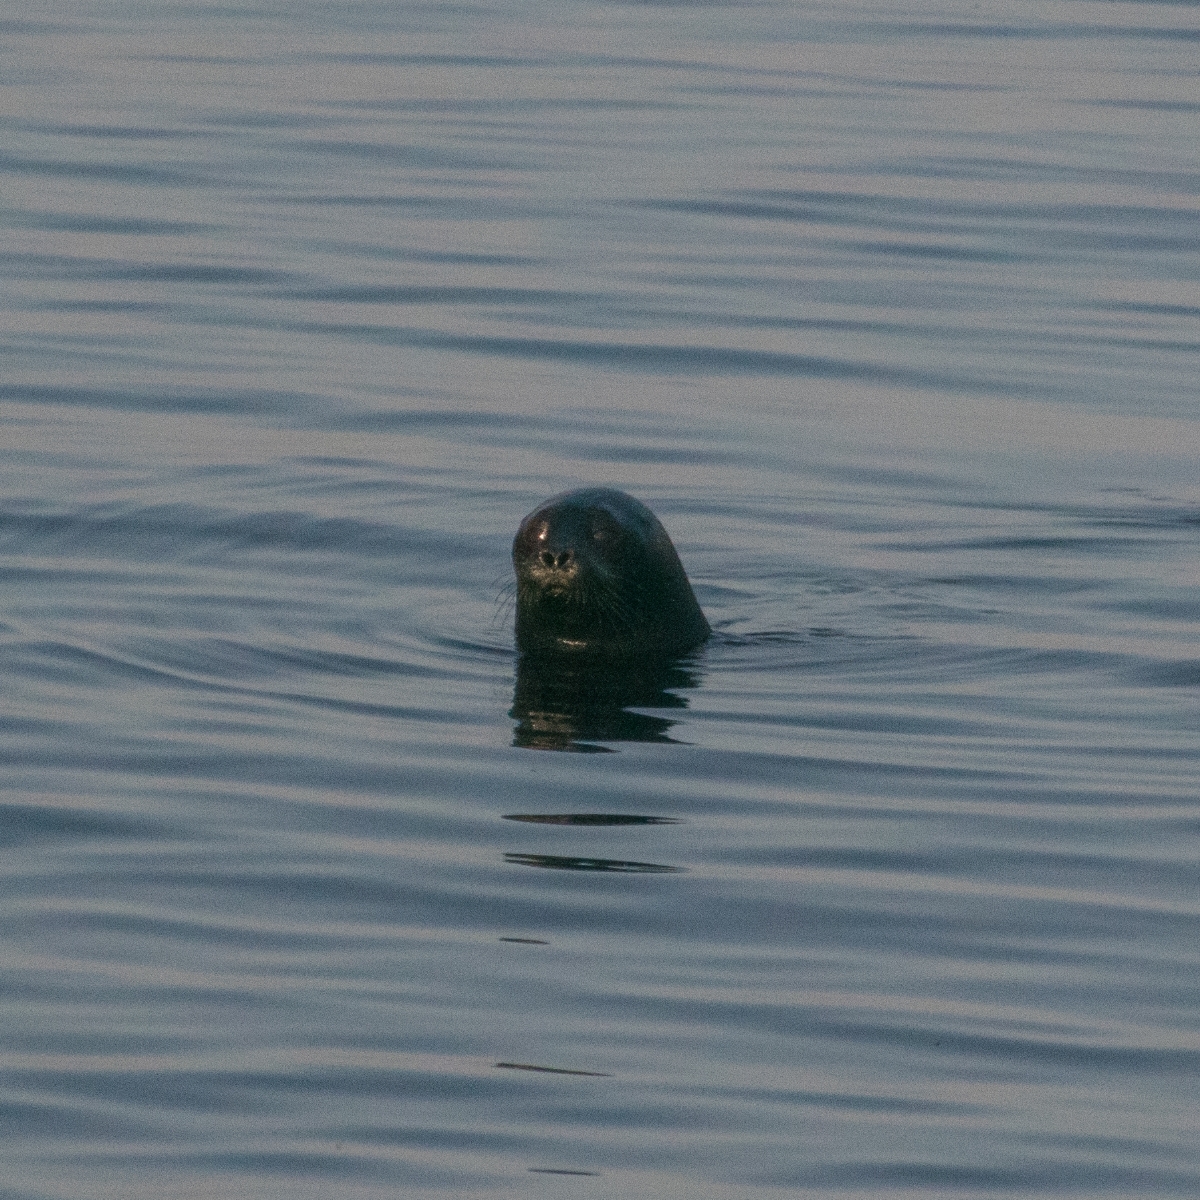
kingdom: Animalia
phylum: Chordata
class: Mammalia
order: Carnivora
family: Phocidae
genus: Pusa
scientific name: Pusa hispida
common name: Ringed seal
